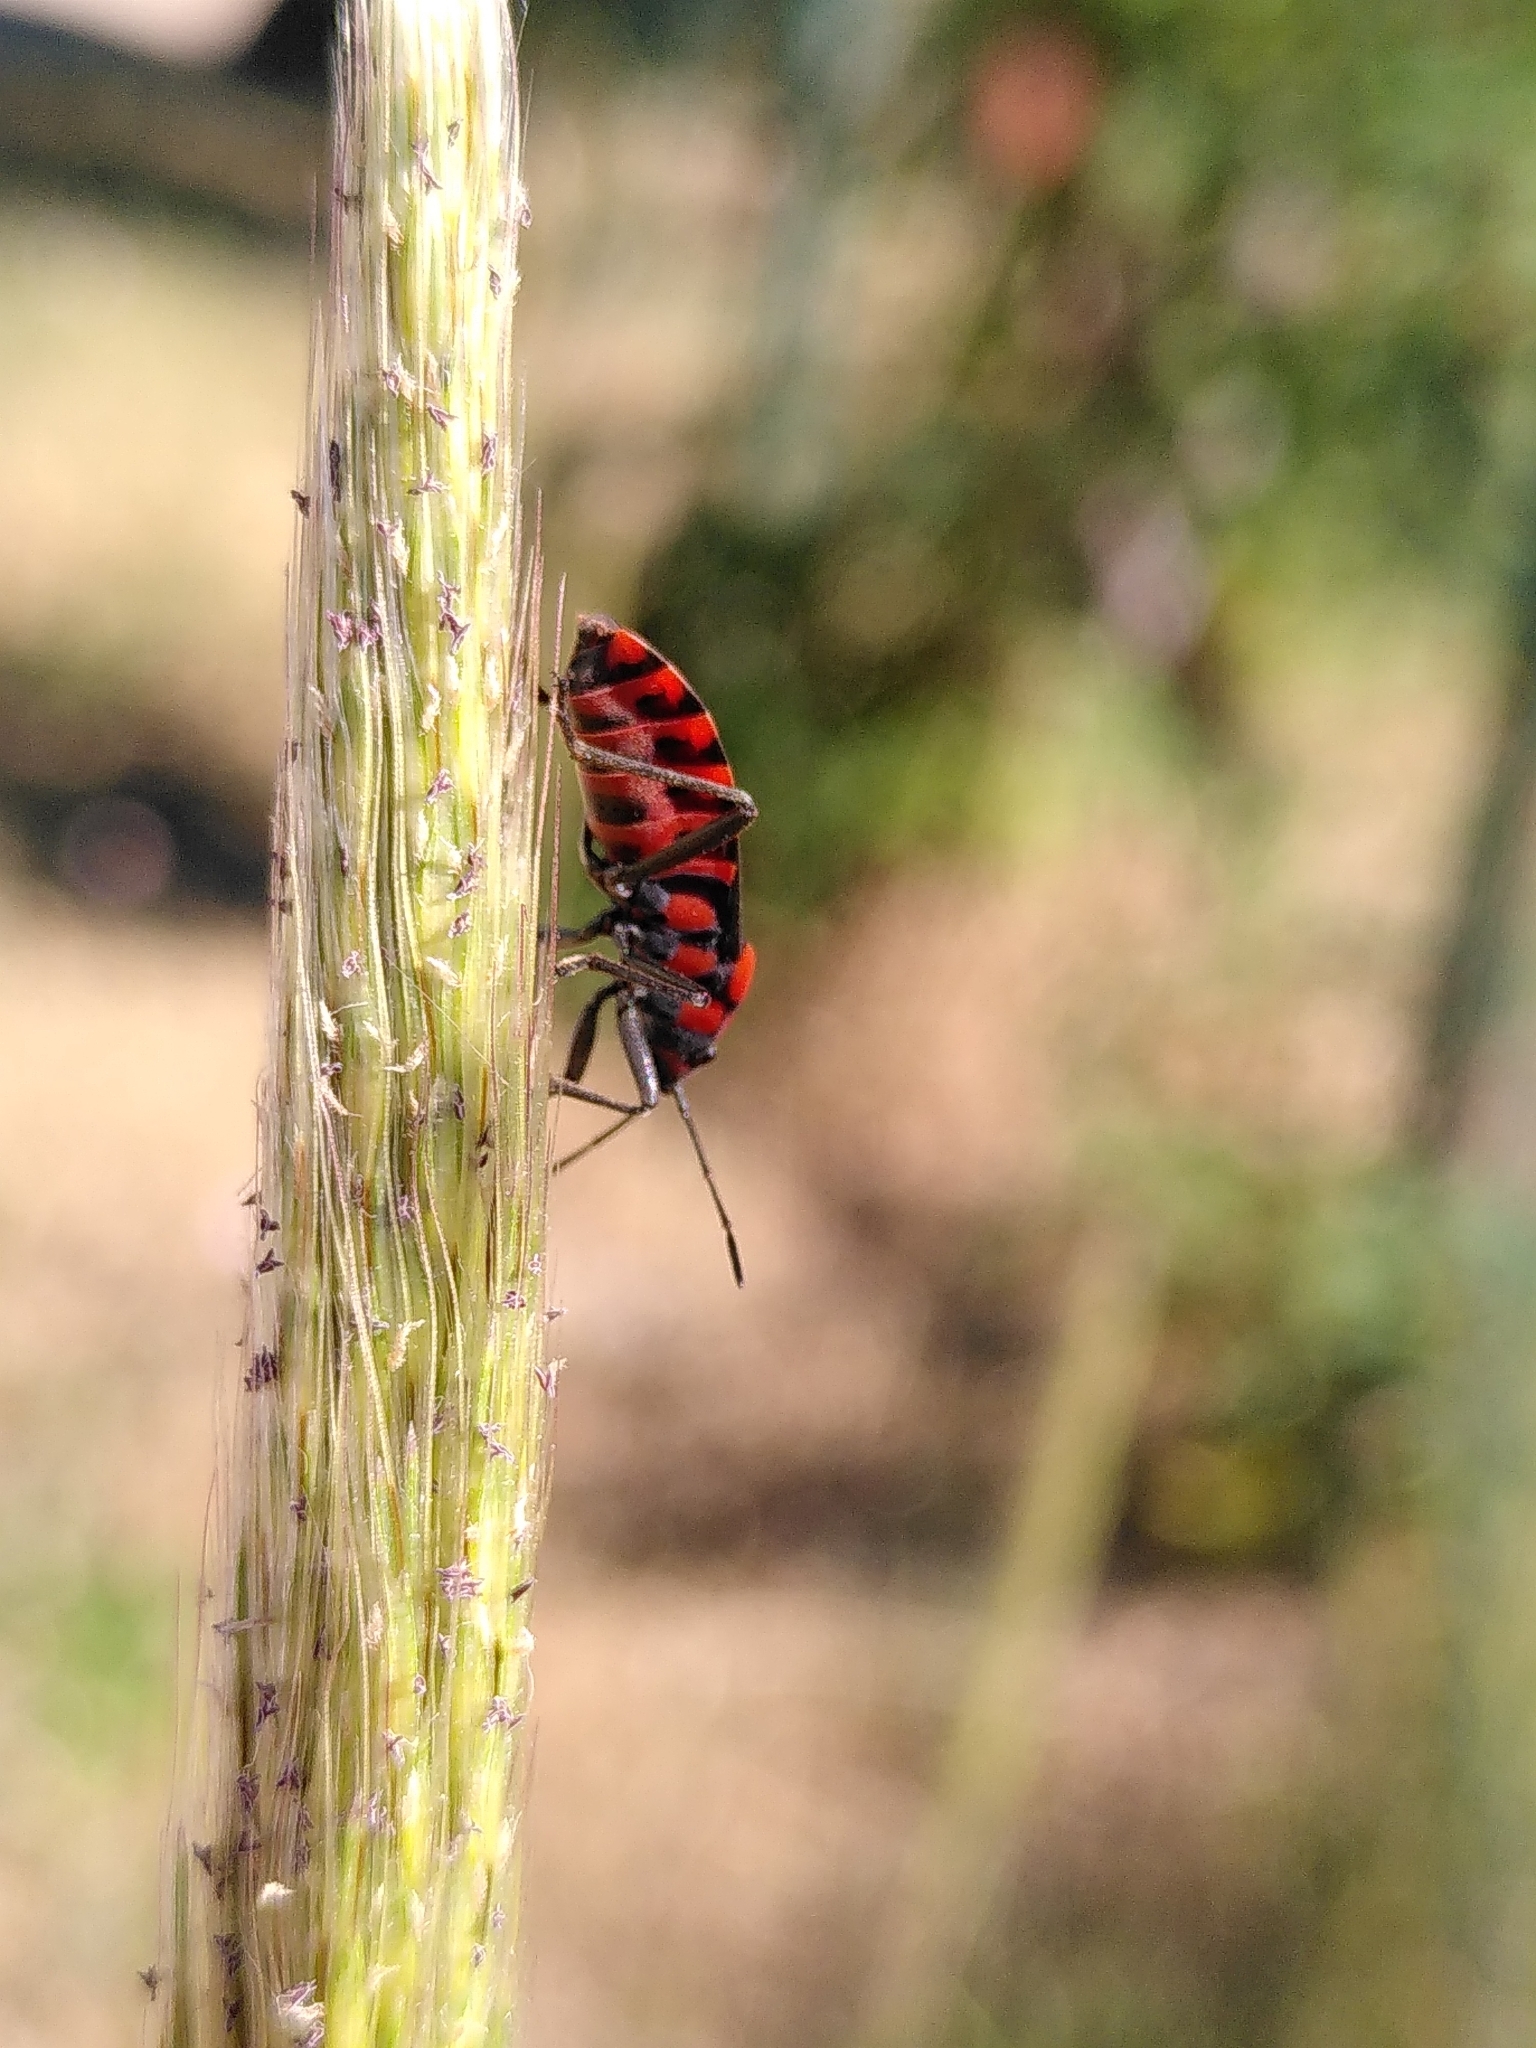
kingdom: Animalia
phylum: Arthropoda
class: Insecta
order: Hemiptera
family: Lygaeidae
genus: Spilostethus
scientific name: Spilostethus saxatilis
